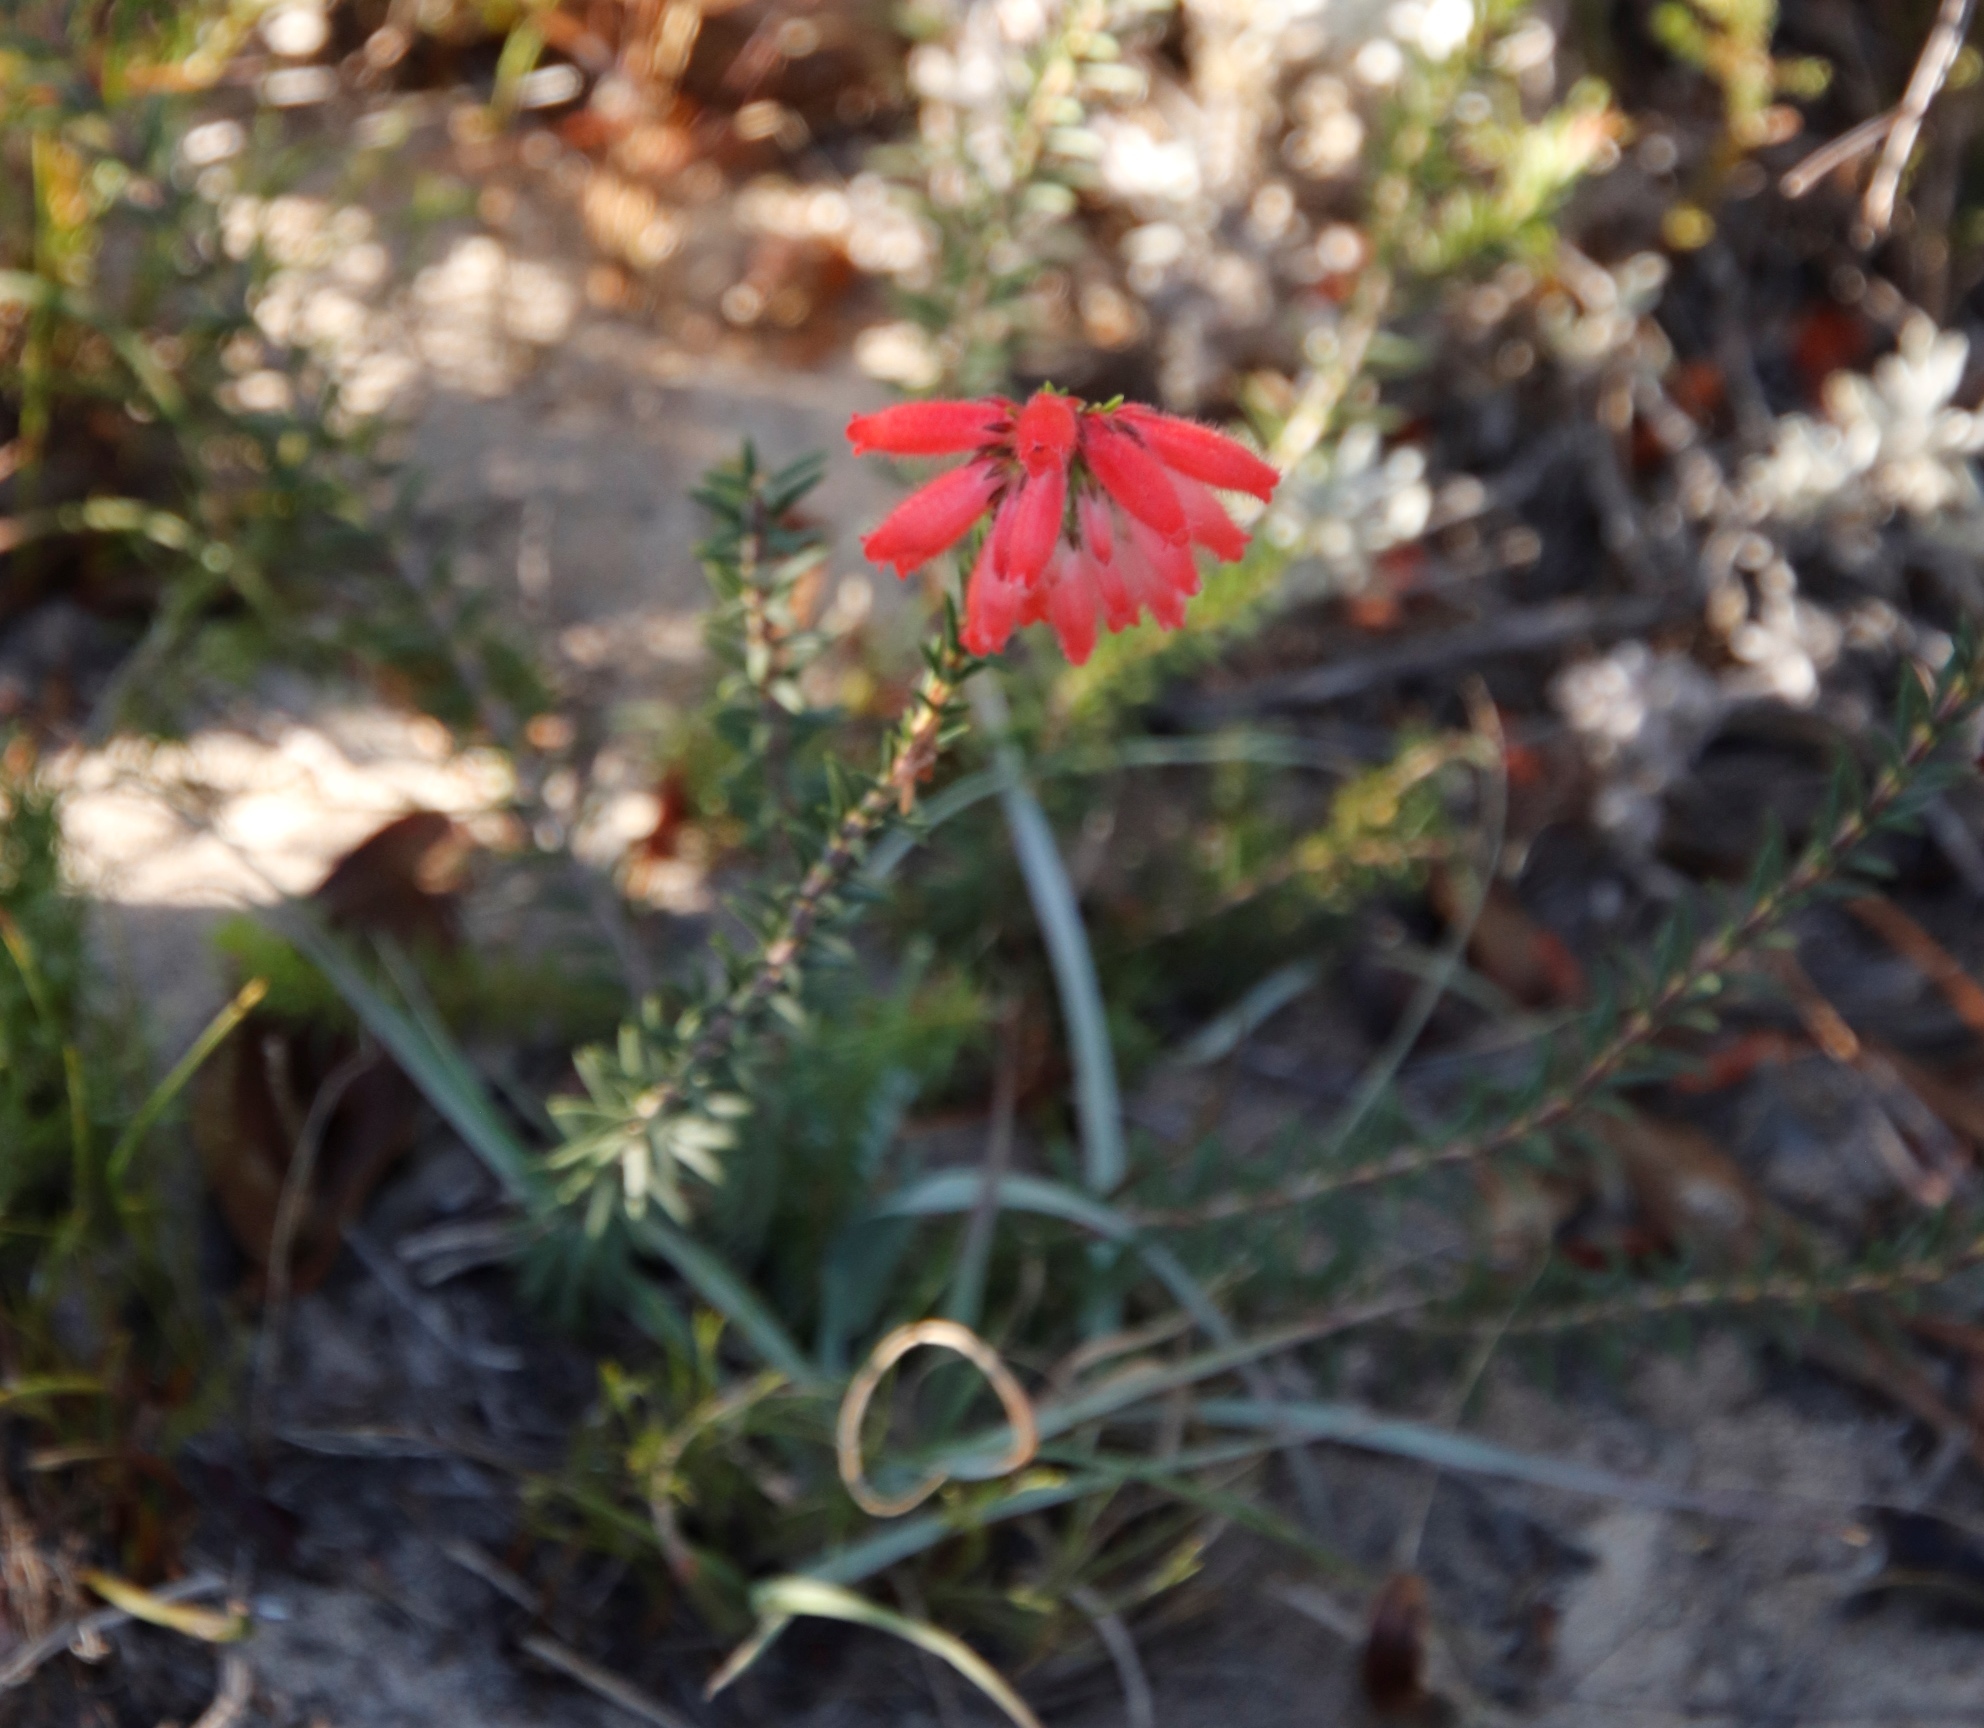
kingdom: Plantae
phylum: Tracheophyta
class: Magnoliopsida
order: Ericales
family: Ericaceae
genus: Erica
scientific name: Erica cerinthoides
